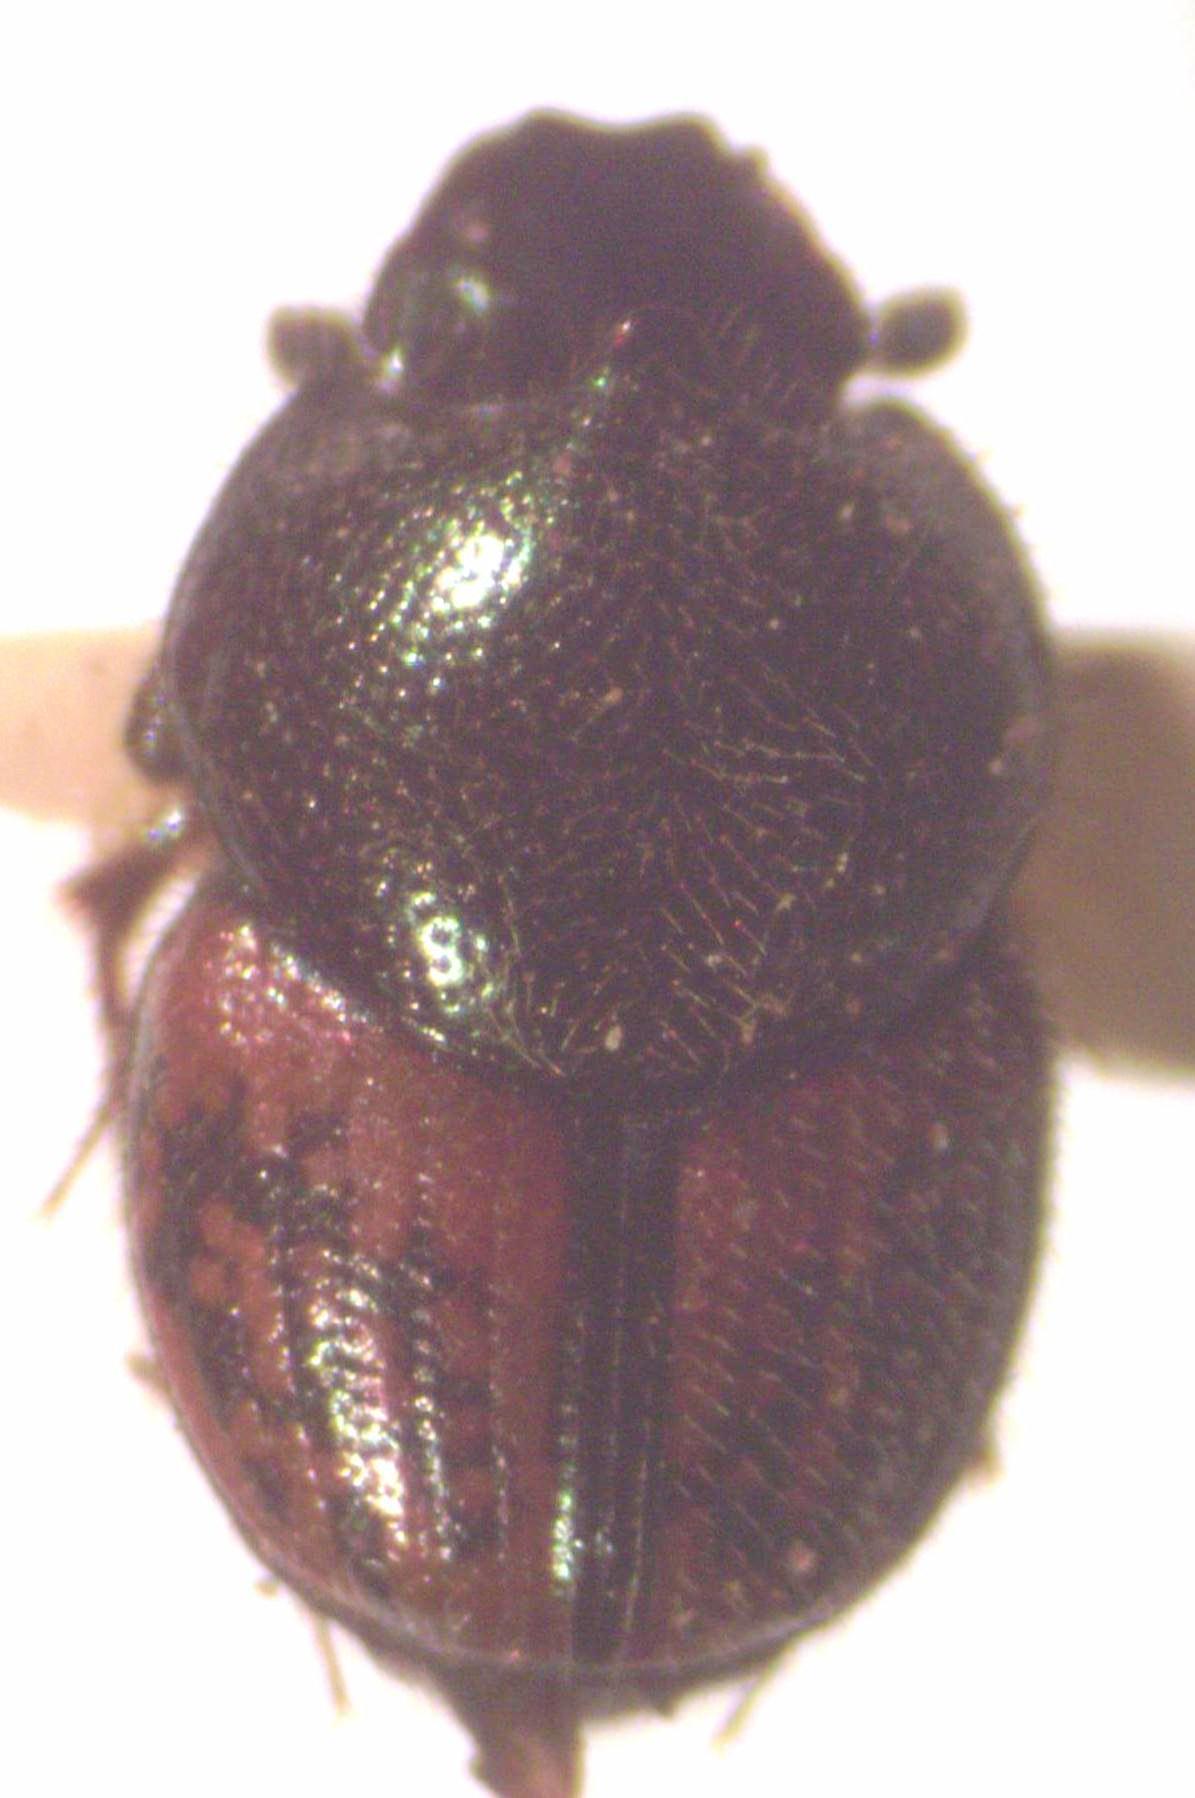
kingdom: Animalia
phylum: Arthropoda
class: Insecta
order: Coleoptera
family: Scarabaeidae
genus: Onthophagus
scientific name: Onthophagus hoepfneri
